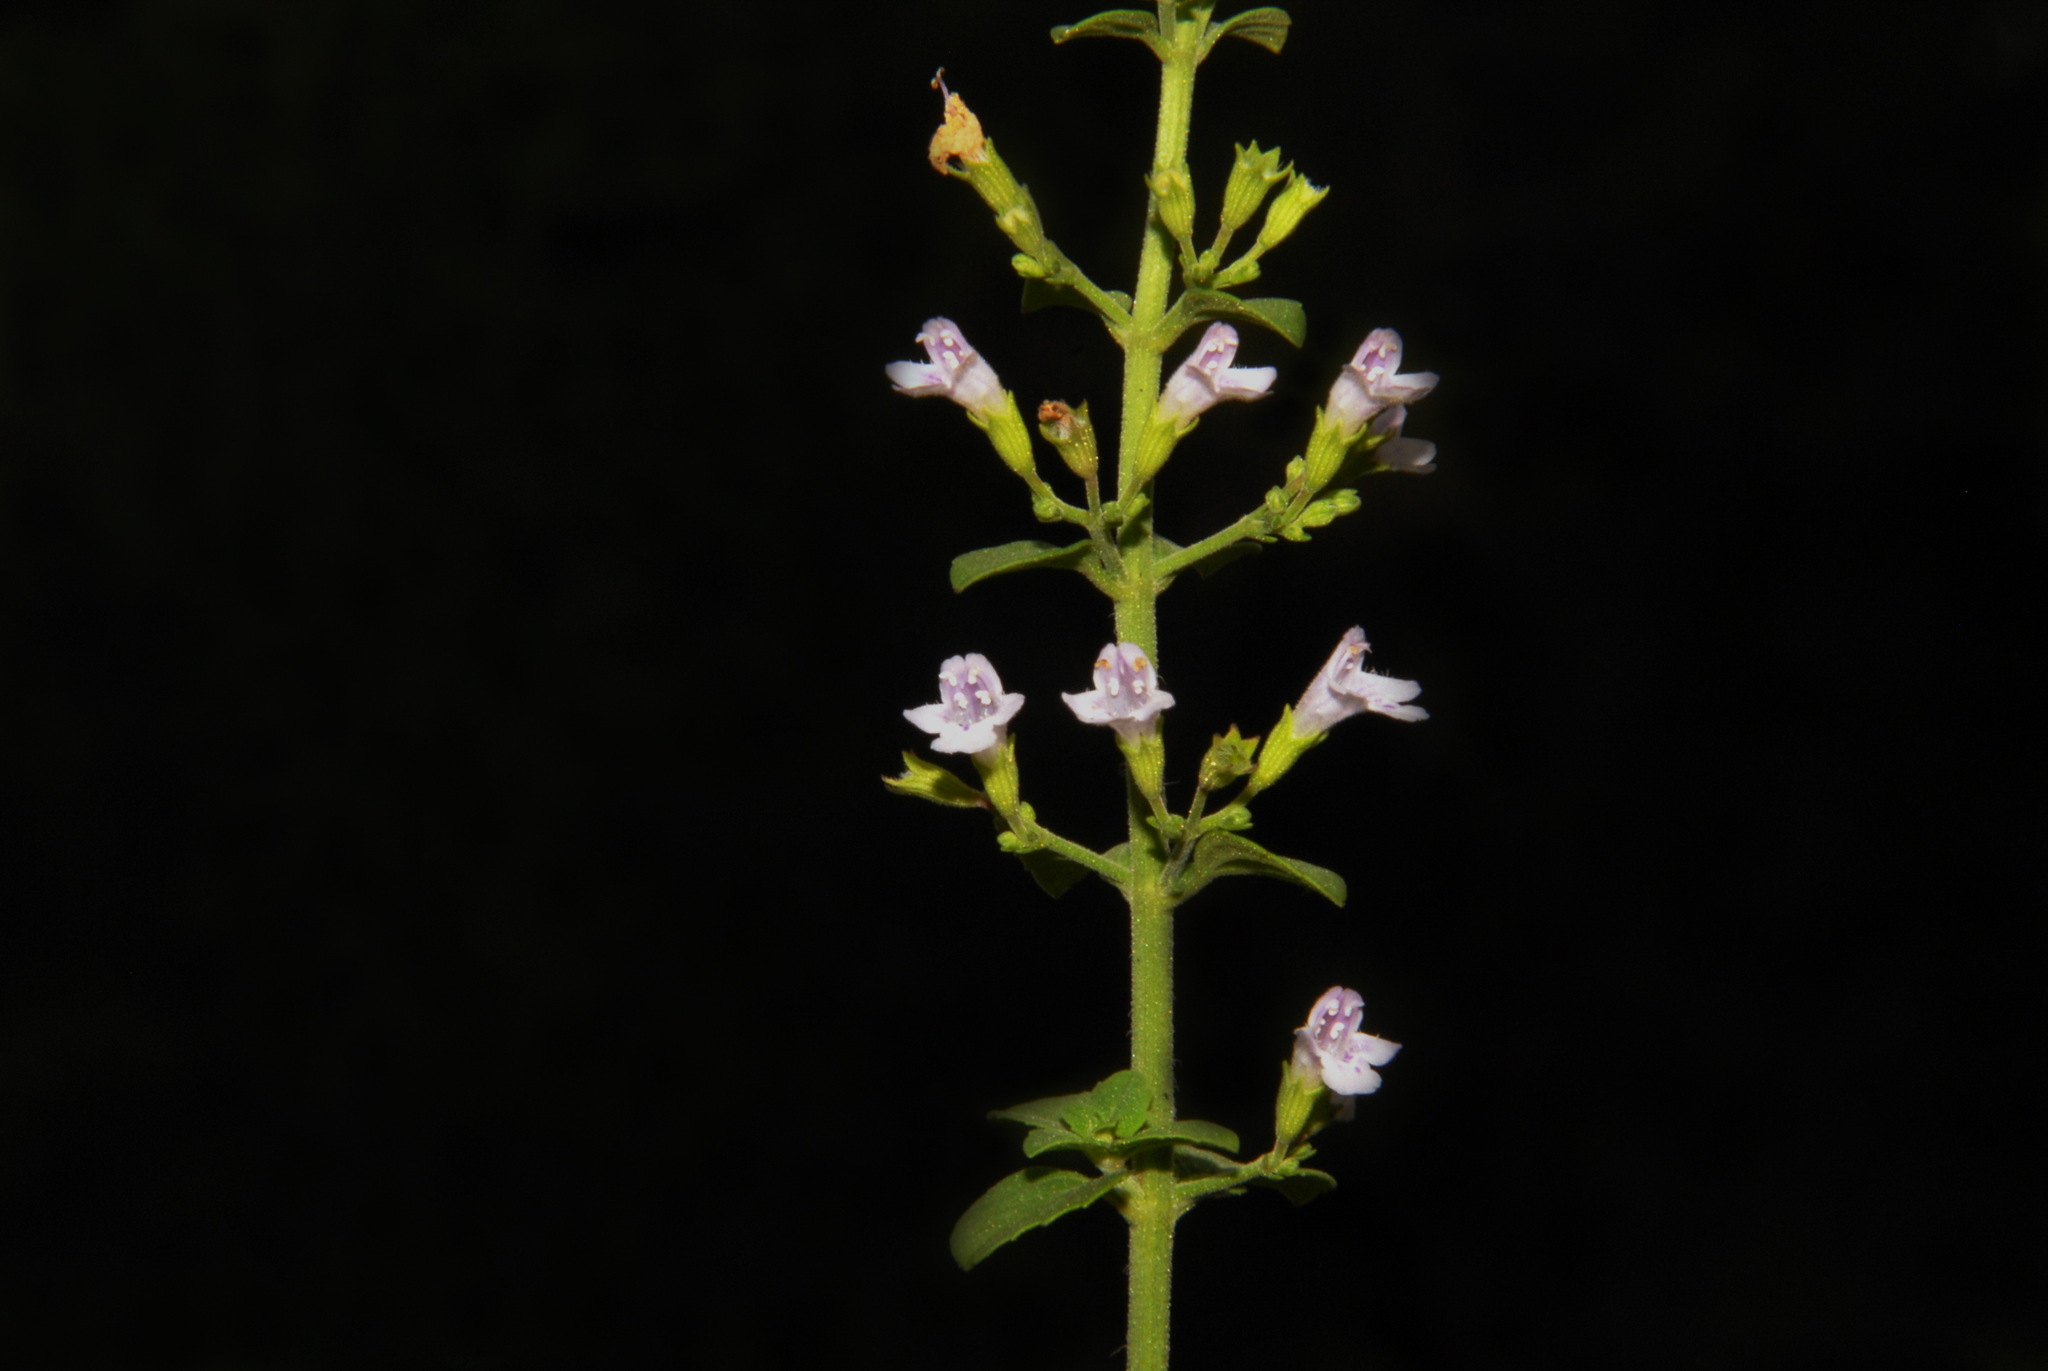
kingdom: Plantae
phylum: Tracheophyta
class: Magnoliopsida
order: Lamiales
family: Lamiaceae
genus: Clinopodium
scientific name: Clinopodium nepeta
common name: Lesser calamint
